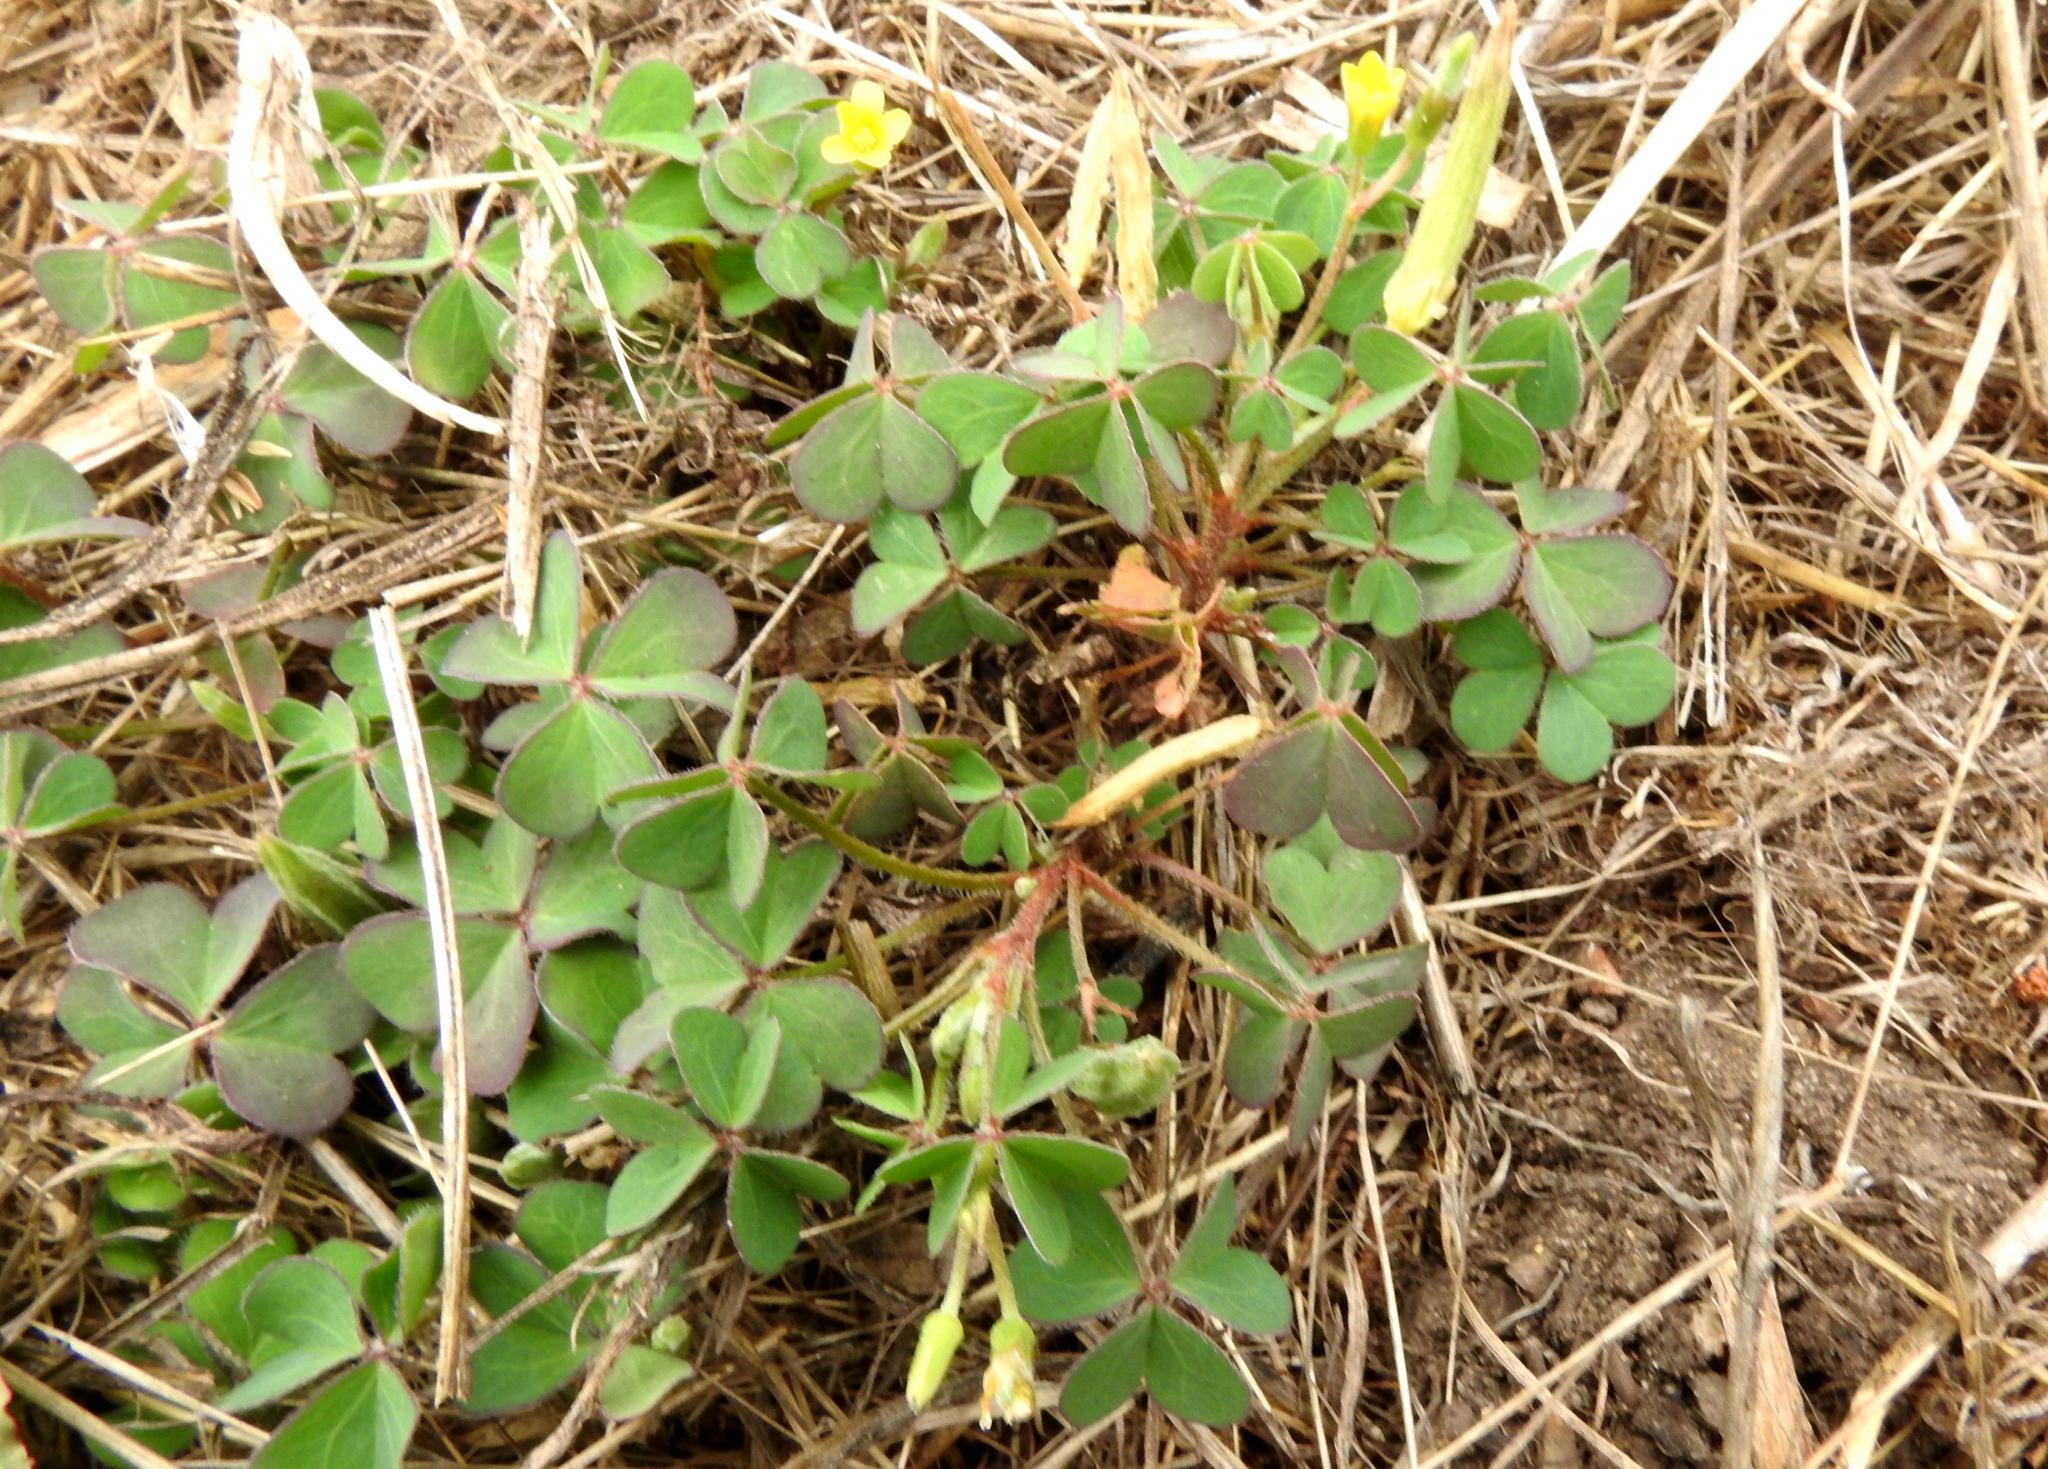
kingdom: Plantae
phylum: Tracheophyta
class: Magnoliopsida
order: Oxalidales
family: Oxalidaceae
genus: Oxalis
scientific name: Oxalis corniculata
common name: Procumbent yellow-sorrel
